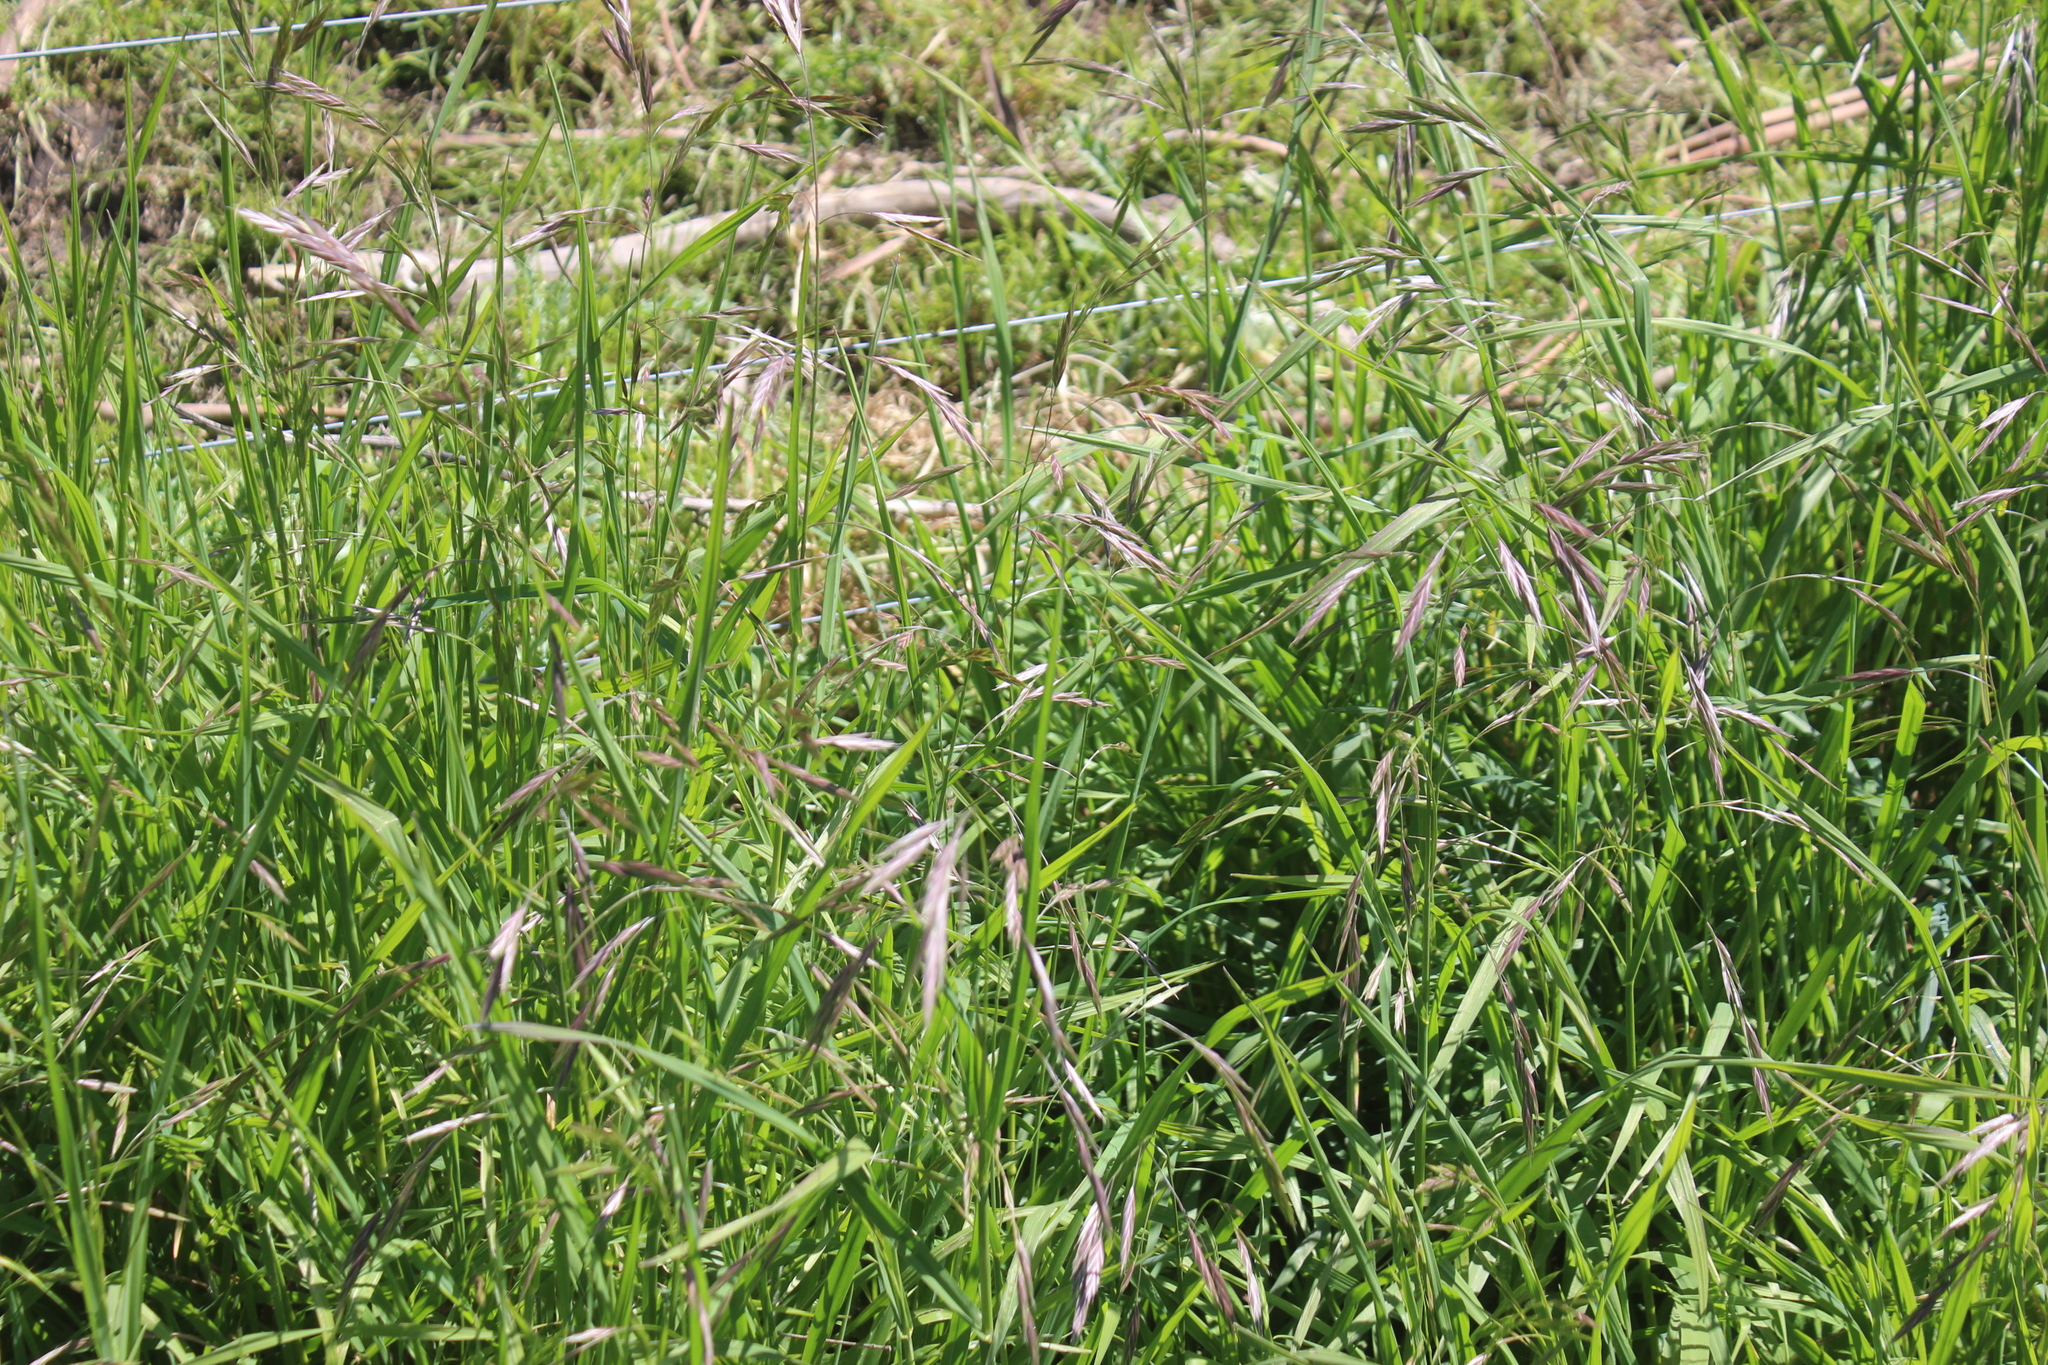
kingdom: Plantae
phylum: Tracheophyta
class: Liliopsida
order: Poales
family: Poaceae
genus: Bromus
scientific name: Bromus catharticus
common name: Rescuegrass
